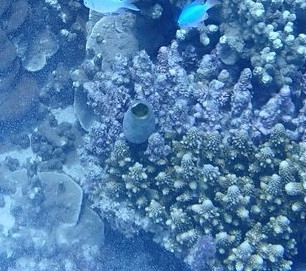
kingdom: Animalia
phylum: Chordata
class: Ascidiacea
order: Aplousobranchia
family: Didemnidae
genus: Didemnum
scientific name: Didemnum molle
